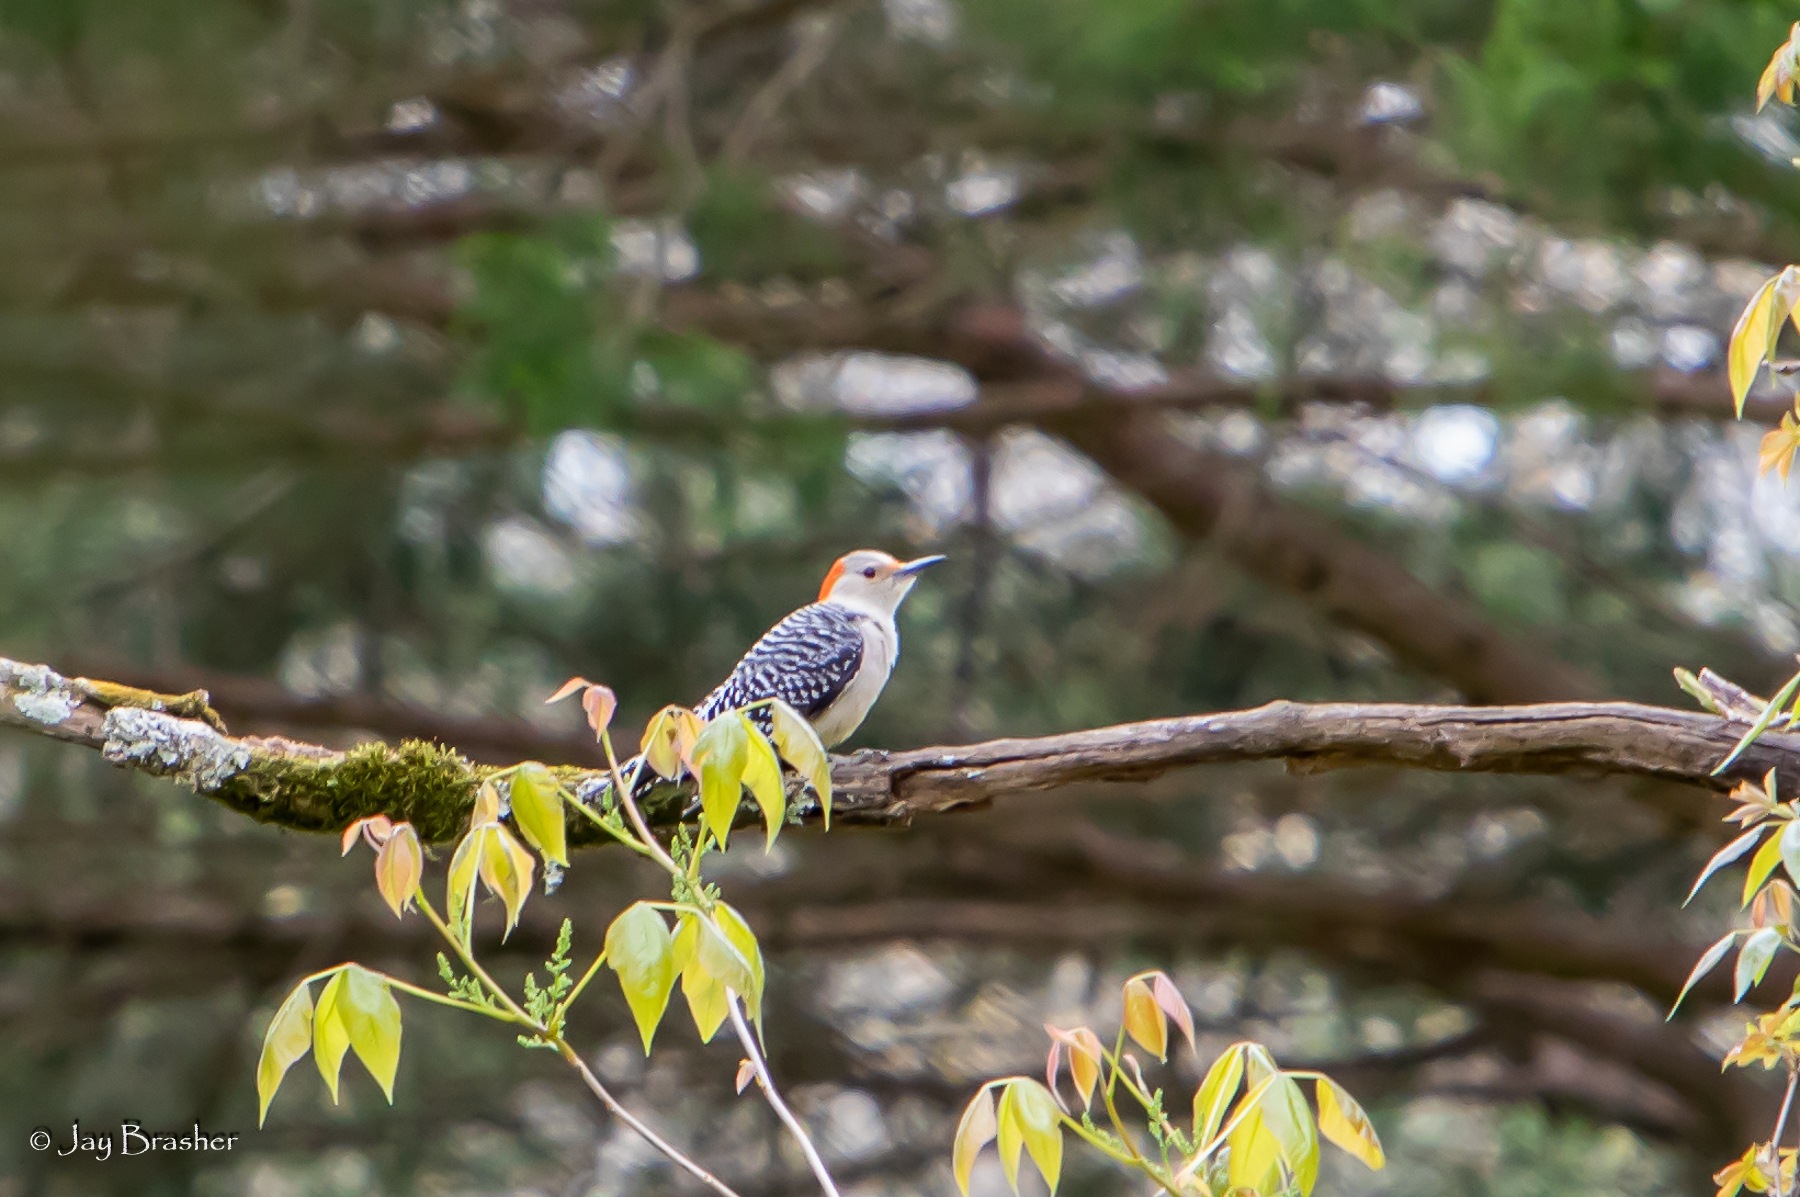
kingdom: Animalia
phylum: Chordata
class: Aves
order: Piciformes
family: Picidae
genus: Melanerpes
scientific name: Melanerpes carolinus
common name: Red-bellied woodpecker
